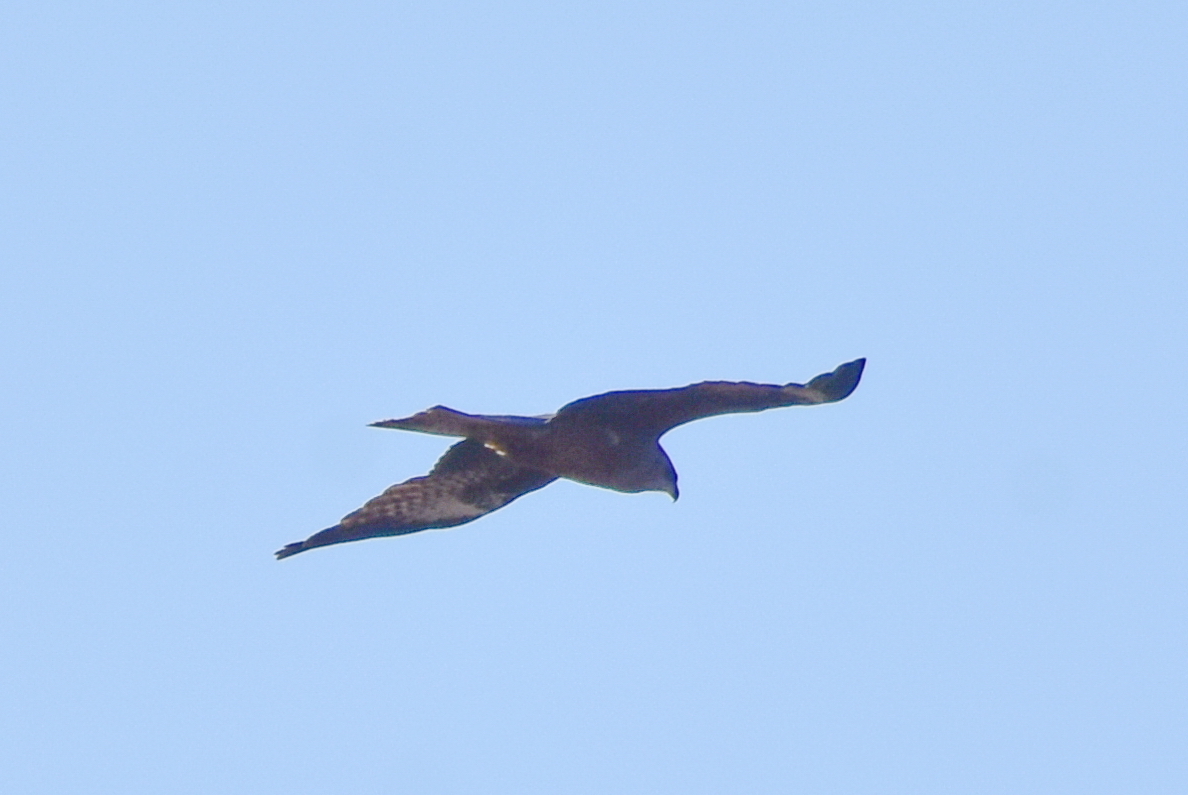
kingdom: Animalia
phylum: Chordata
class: Aves
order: Accipitriformes
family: Accipitridae
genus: Milvus
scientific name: Milvus migrans
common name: Black kite
